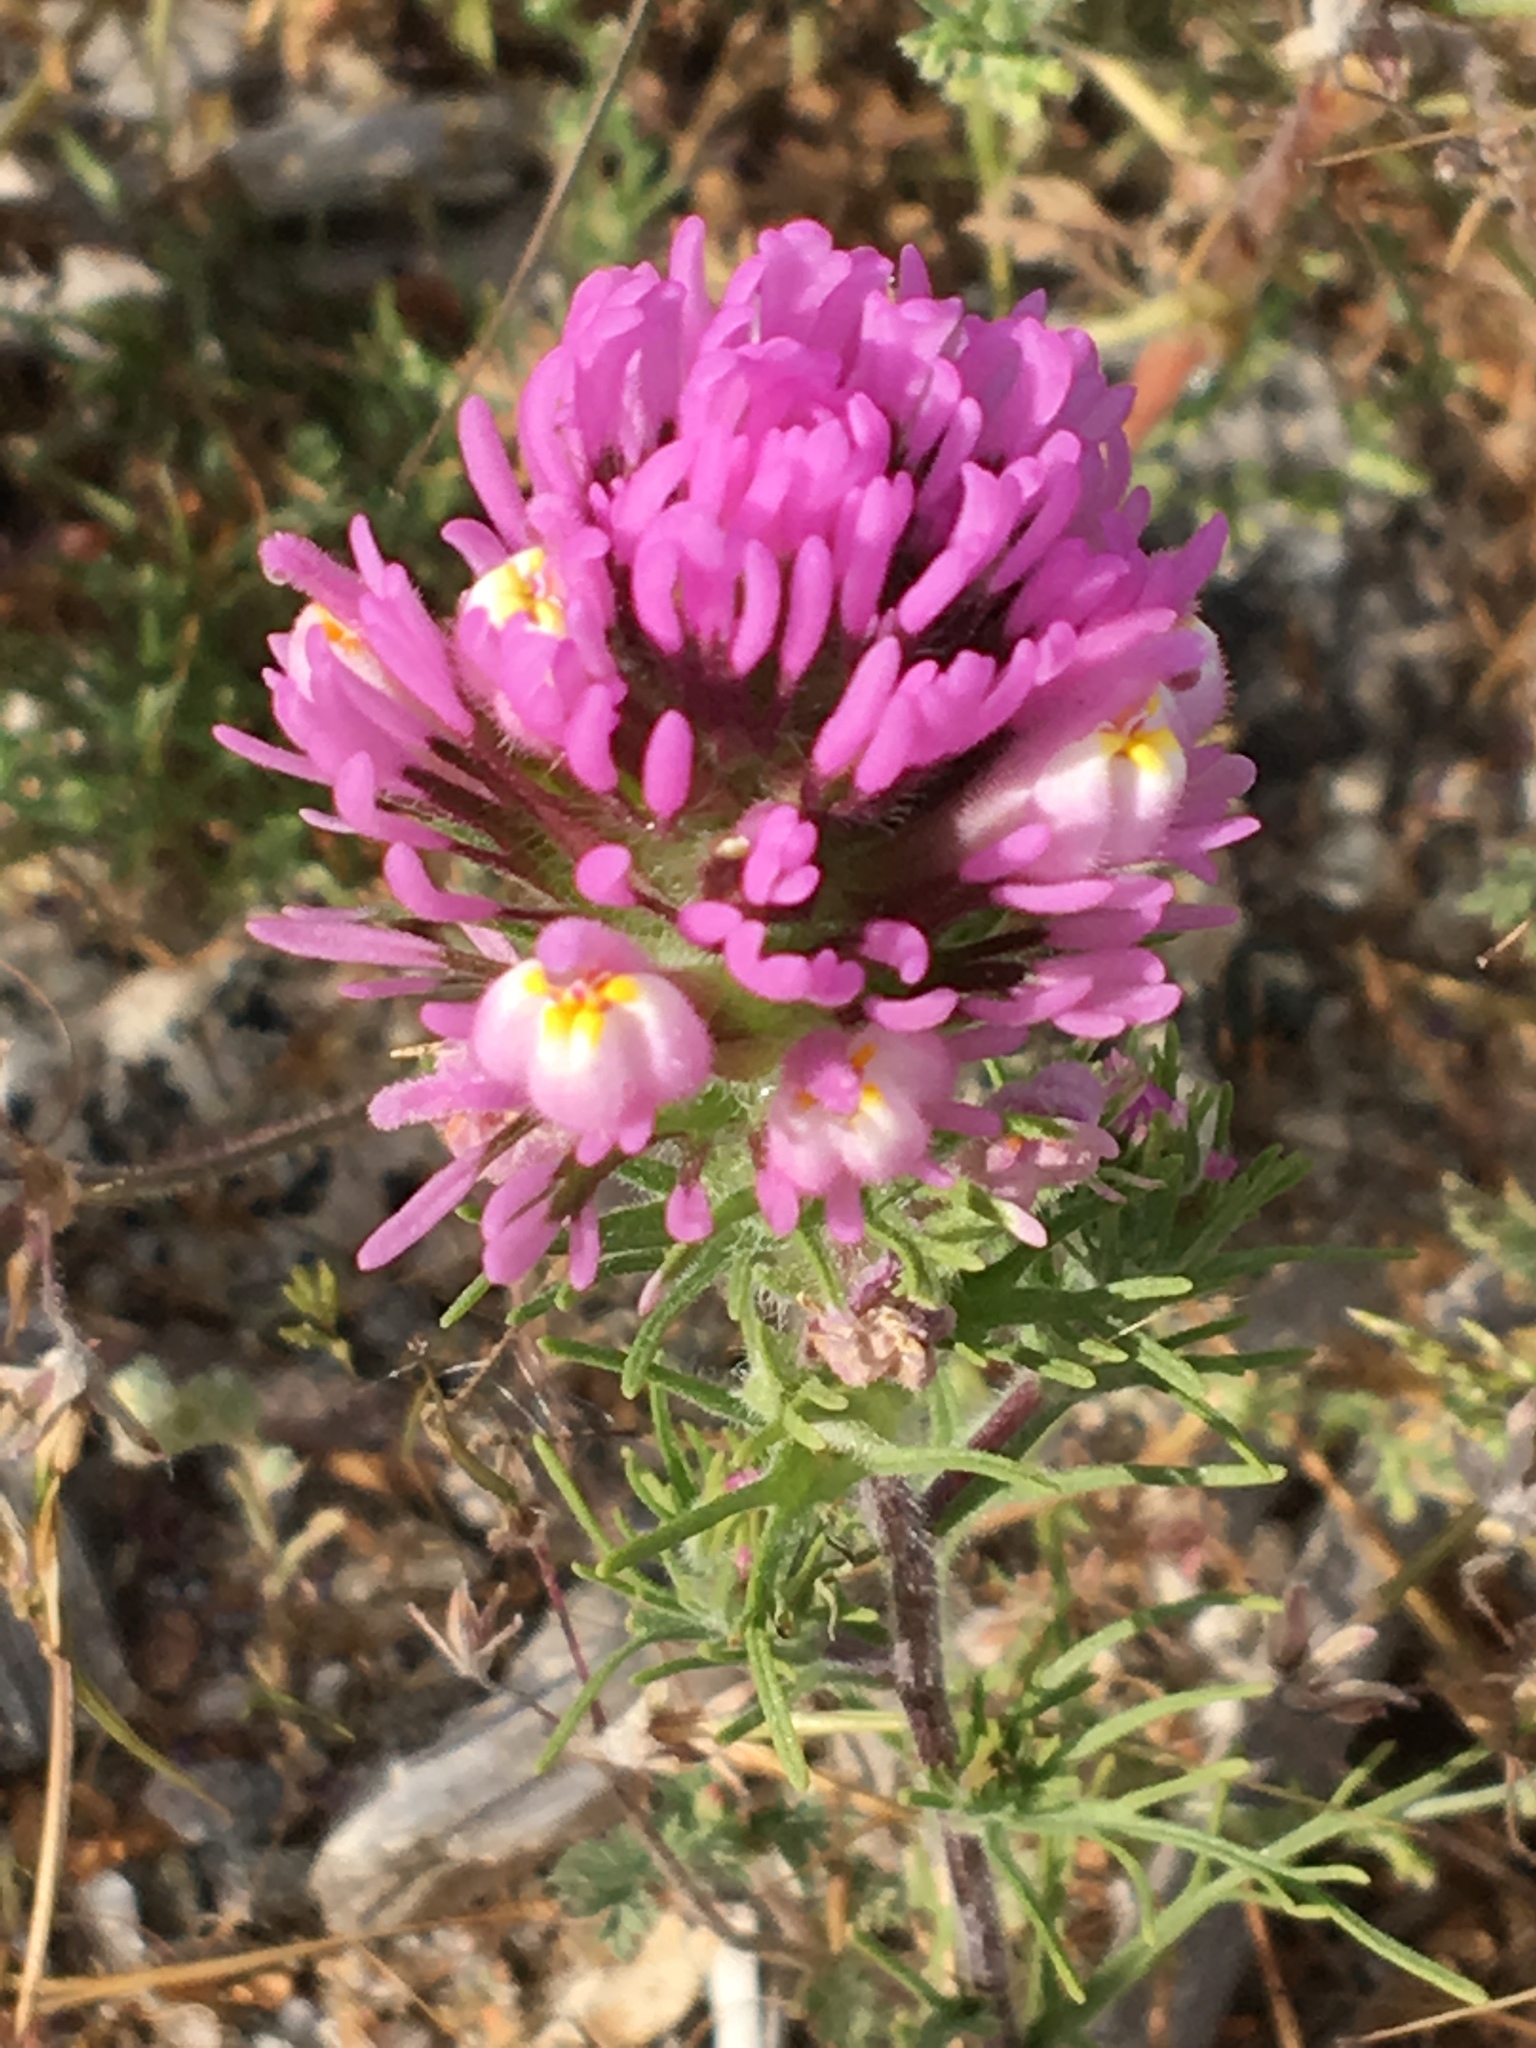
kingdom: Plantae
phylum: Tracheophyta
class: Magnoliopsida
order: Lamiales
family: Orobanchaceae
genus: Castilleja
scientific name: Castilleja exserta
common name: Purple owl-clover
